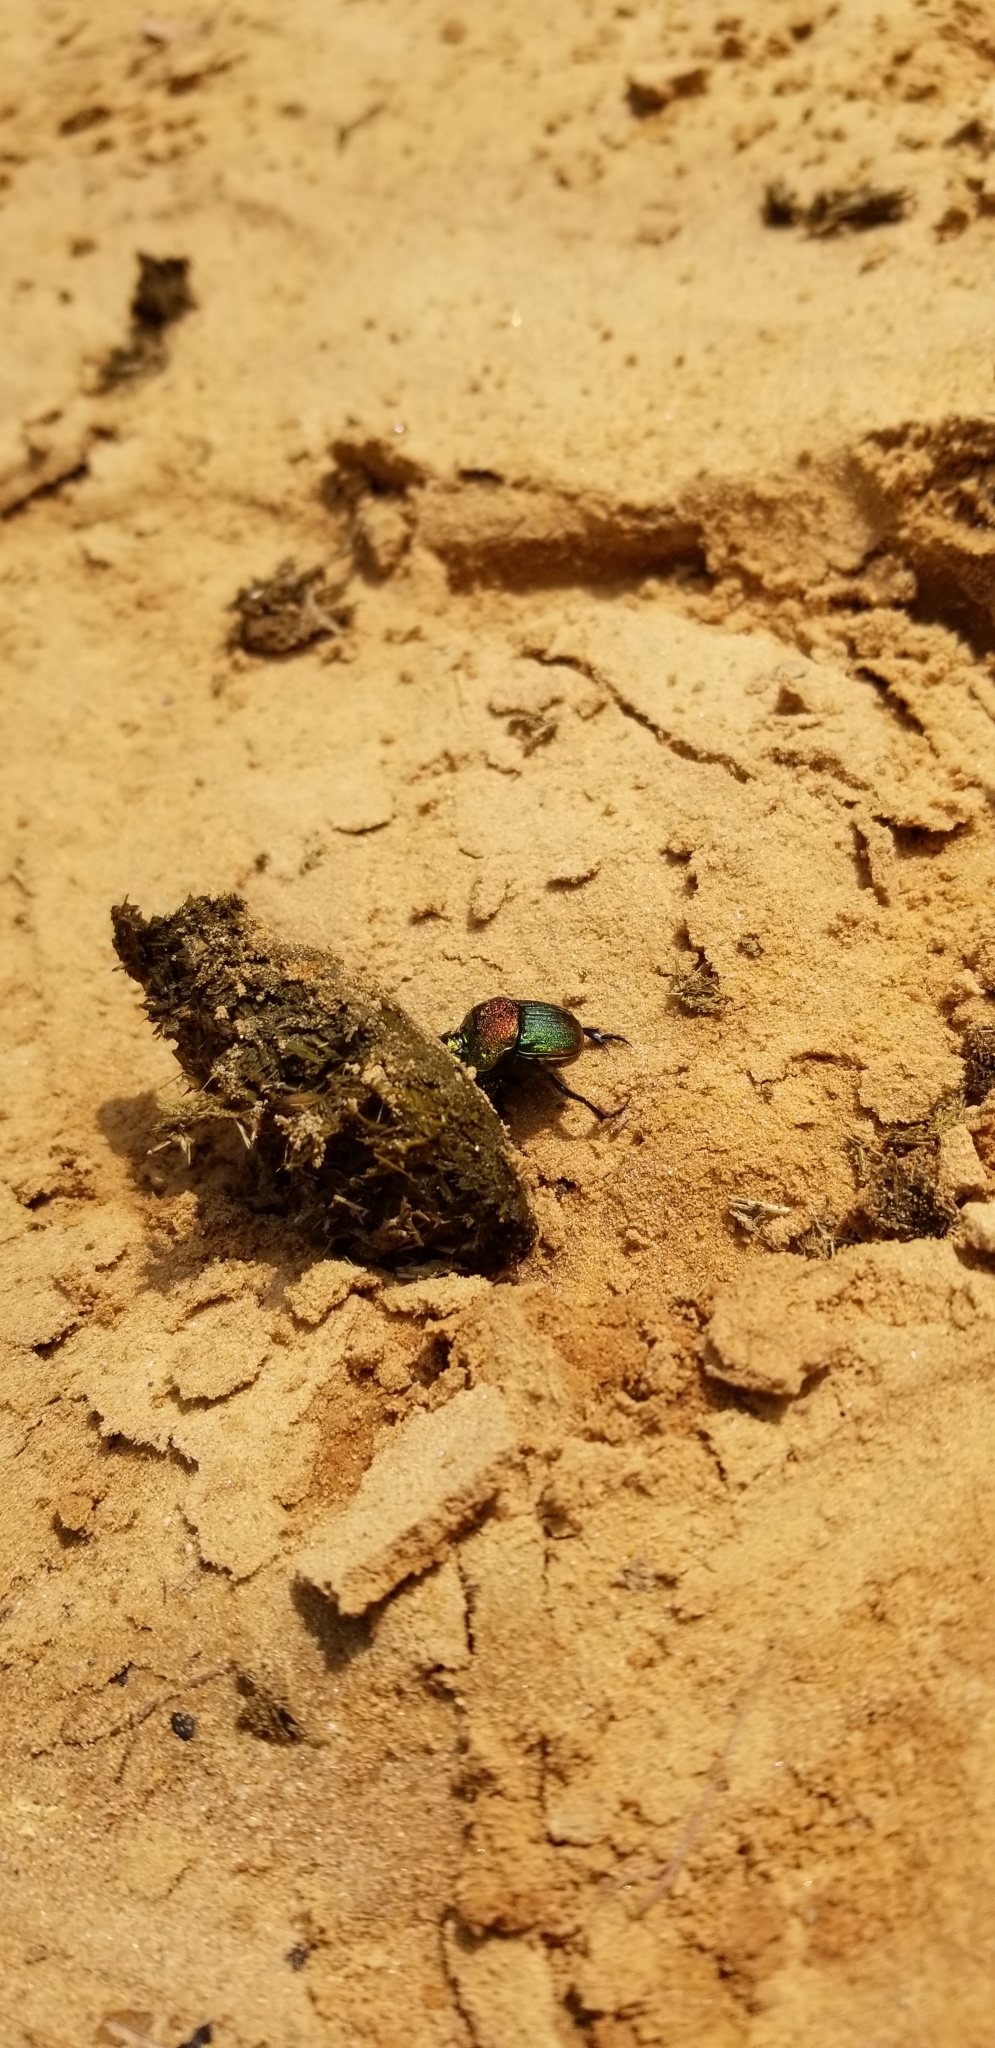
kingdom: Animalia
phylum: Arthropoda
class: Insecta
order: Coleoptera
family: Scarabaeidae
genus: Phanaeus
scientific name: Phanaeus vindex
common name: Rainbow scarab
